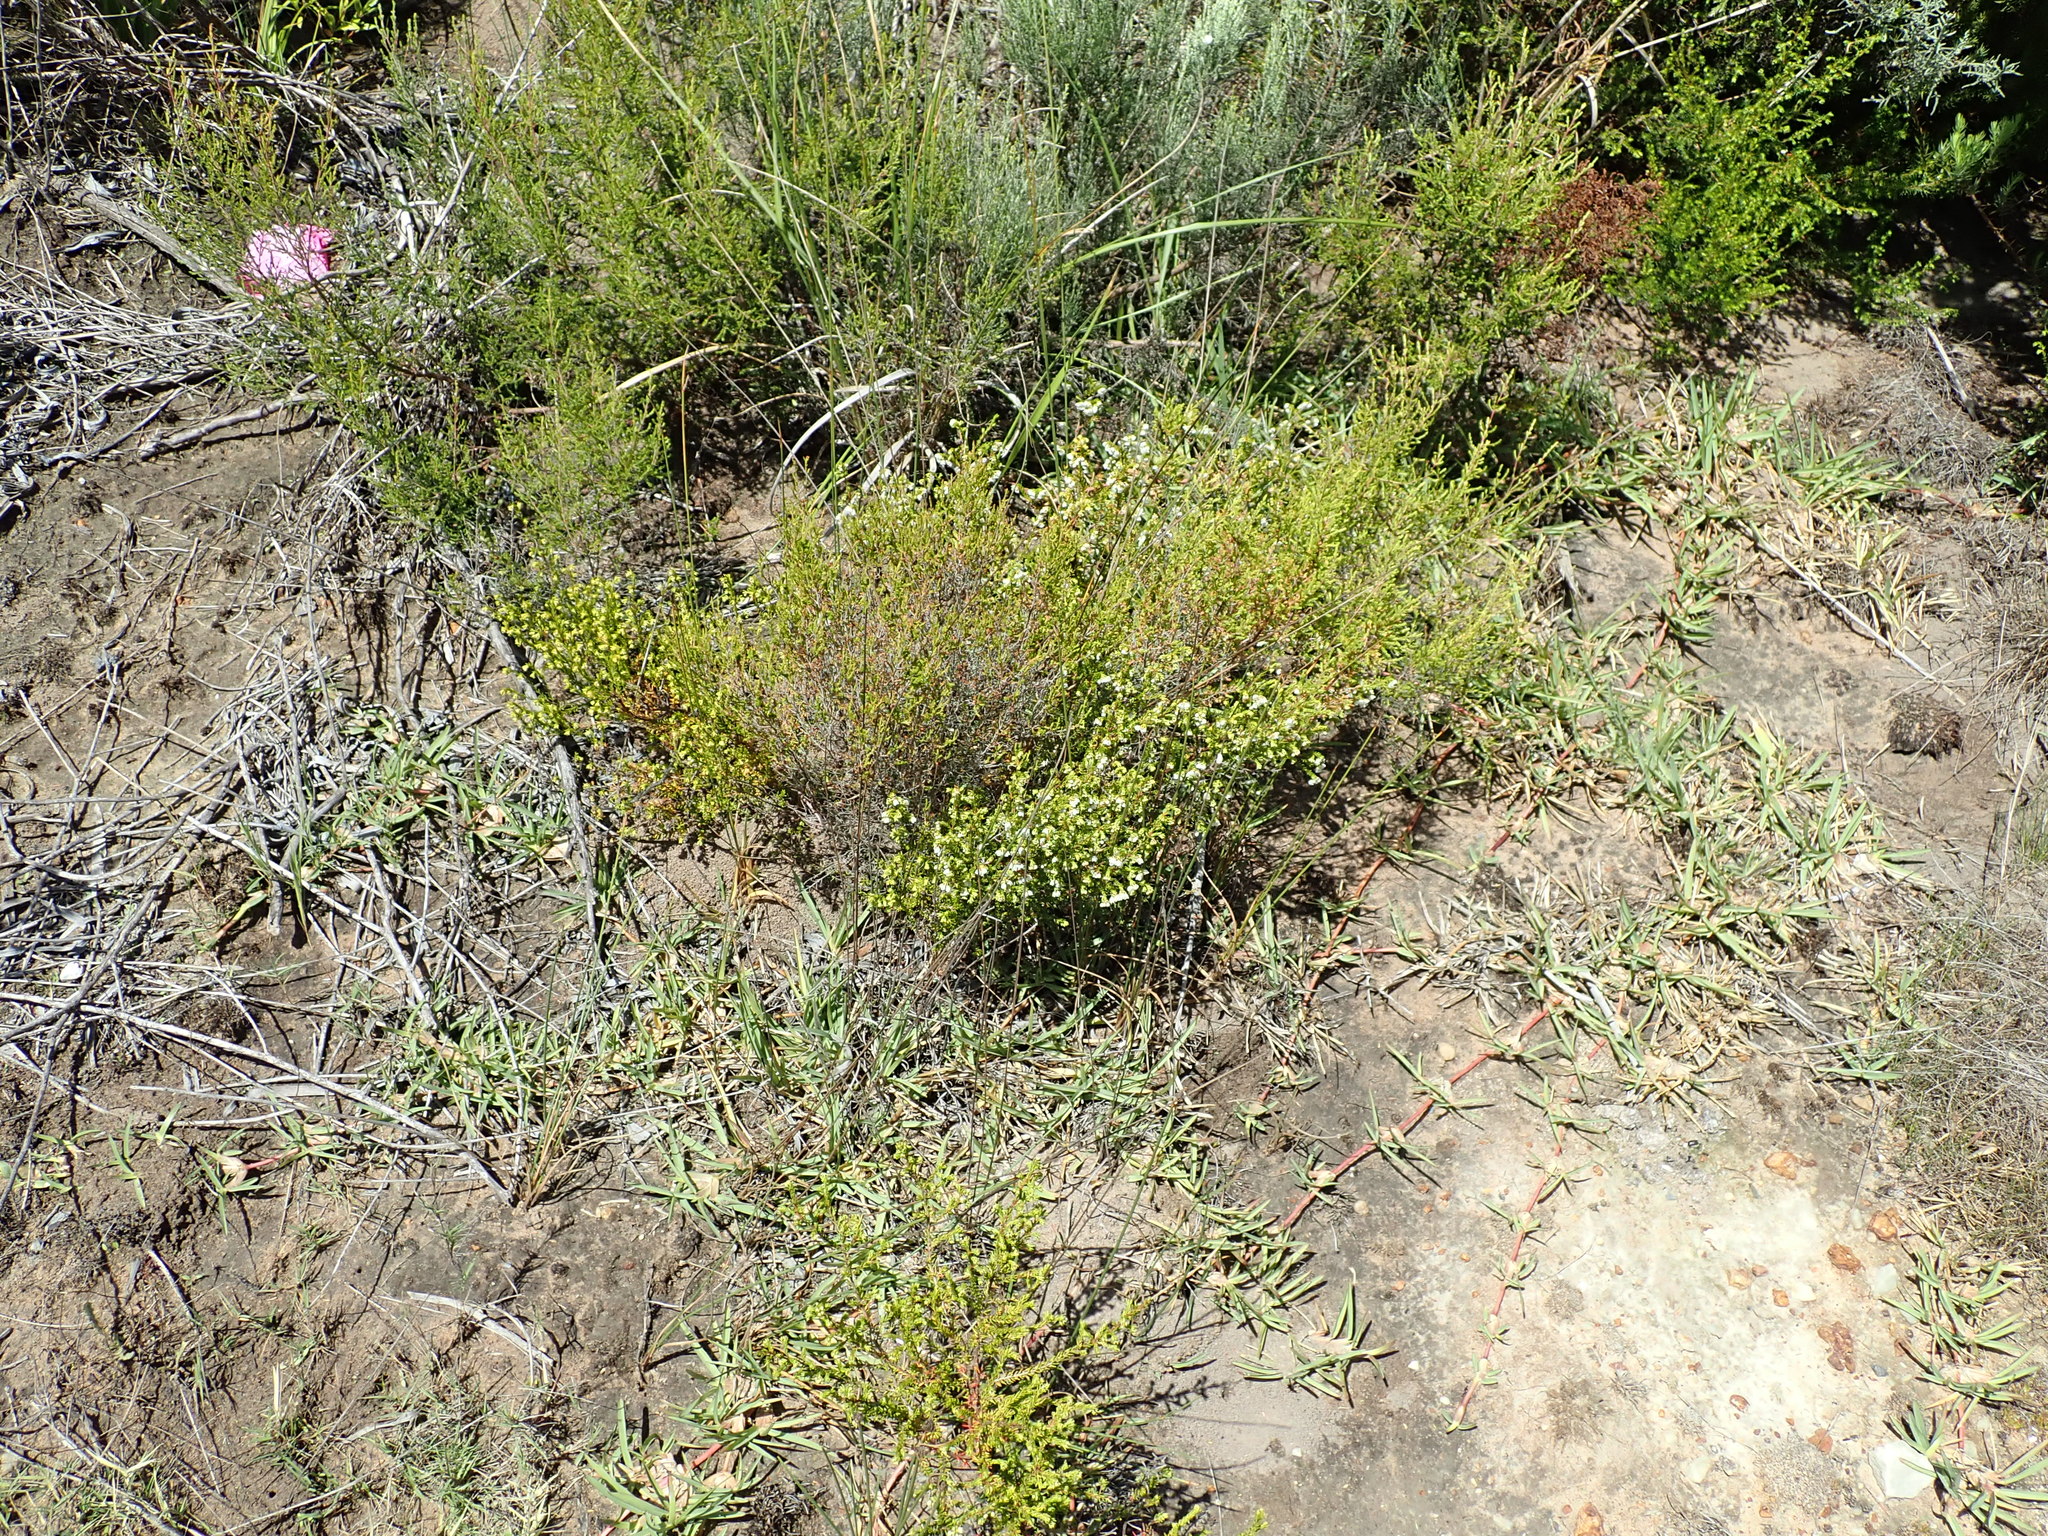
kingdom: Plantae
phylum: Tracheophyta
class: Magnoliopsida
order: Ericales
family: Ericaceae
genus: Erica
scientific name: Erica subdivaricata
